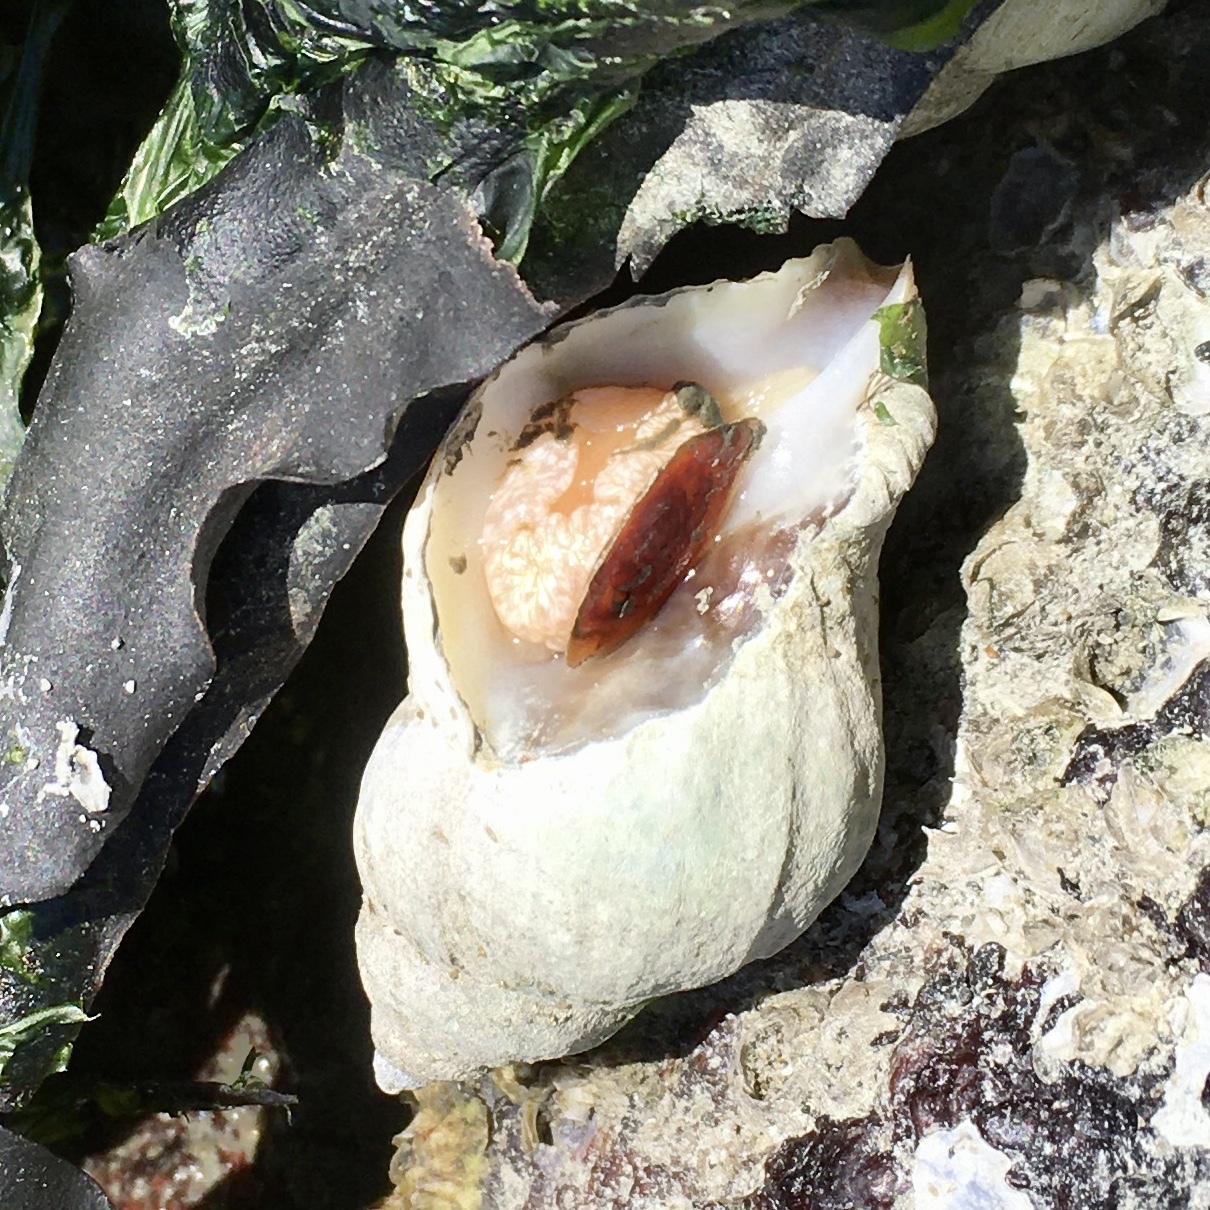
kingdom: Animalia
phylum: Mollusca
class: Gastropoda
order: Neogastropoda
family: Muricidae
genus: Nucella
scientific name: Nucella lamellosa
